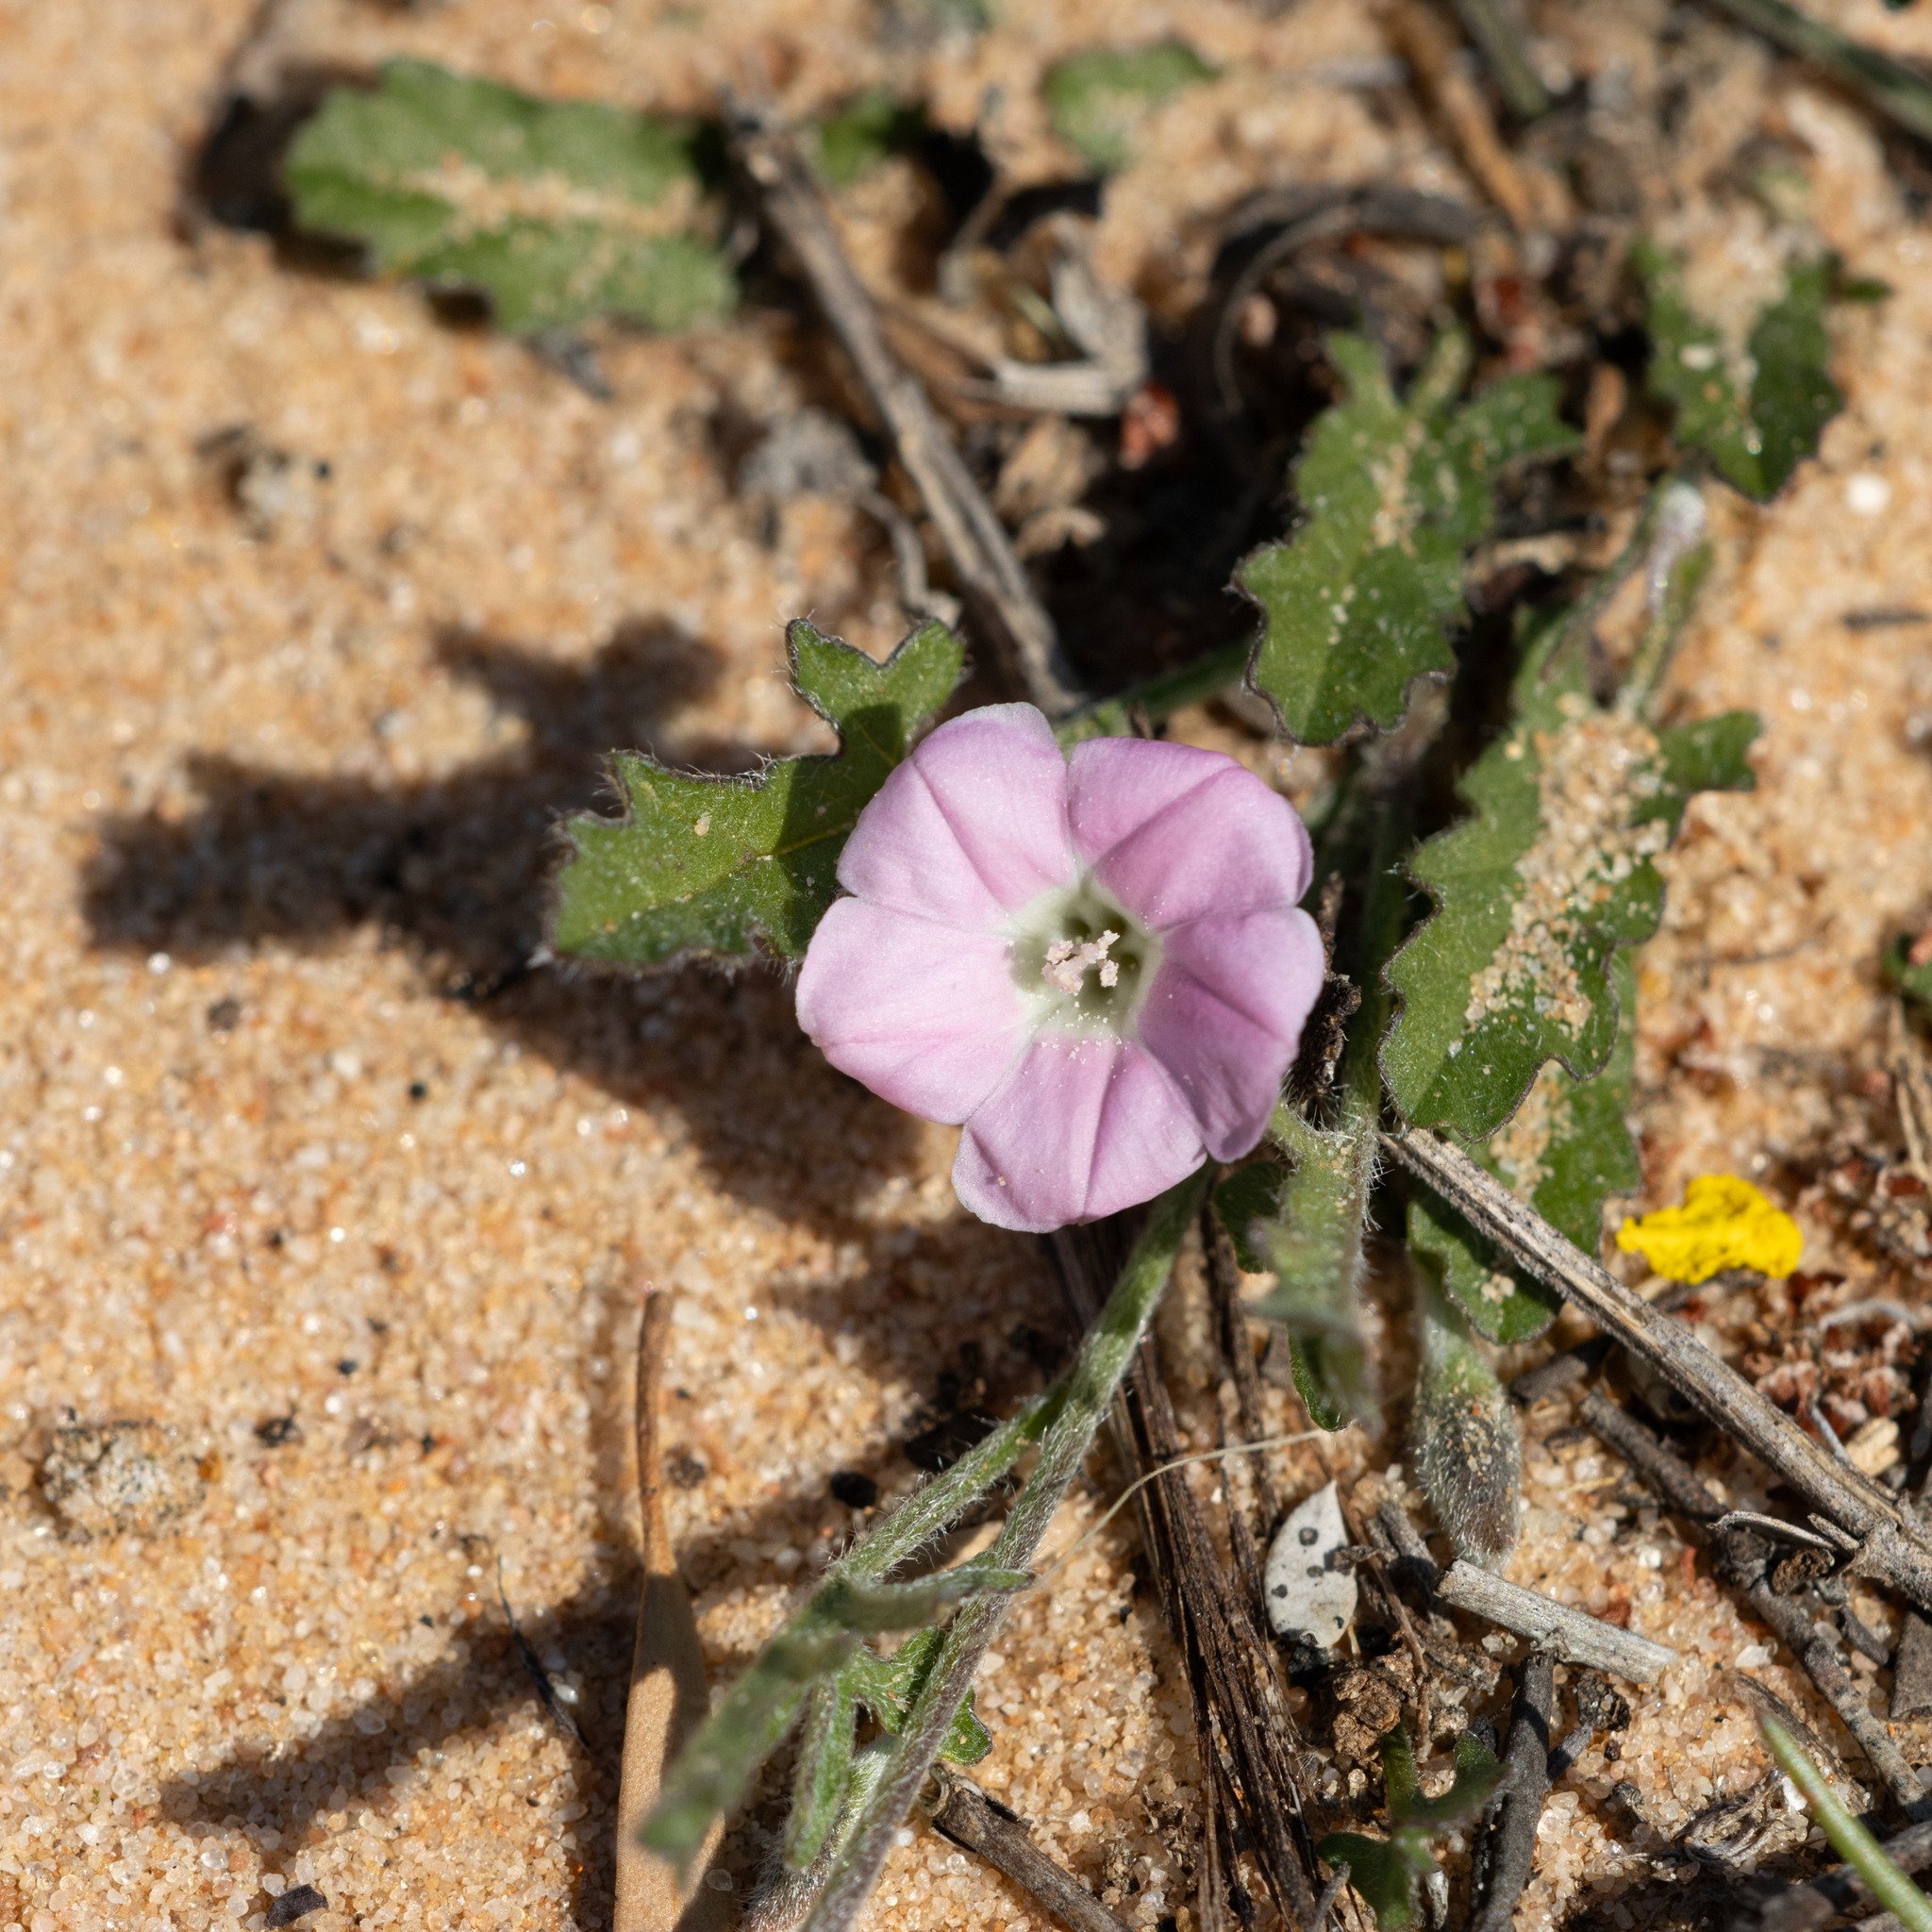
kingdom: Plantae
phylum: Tracheophyta
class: Magnoliopsida
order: Solanales
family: Convolvulaceae
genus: Convolvulus
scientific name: Convolvulus angustissimus
